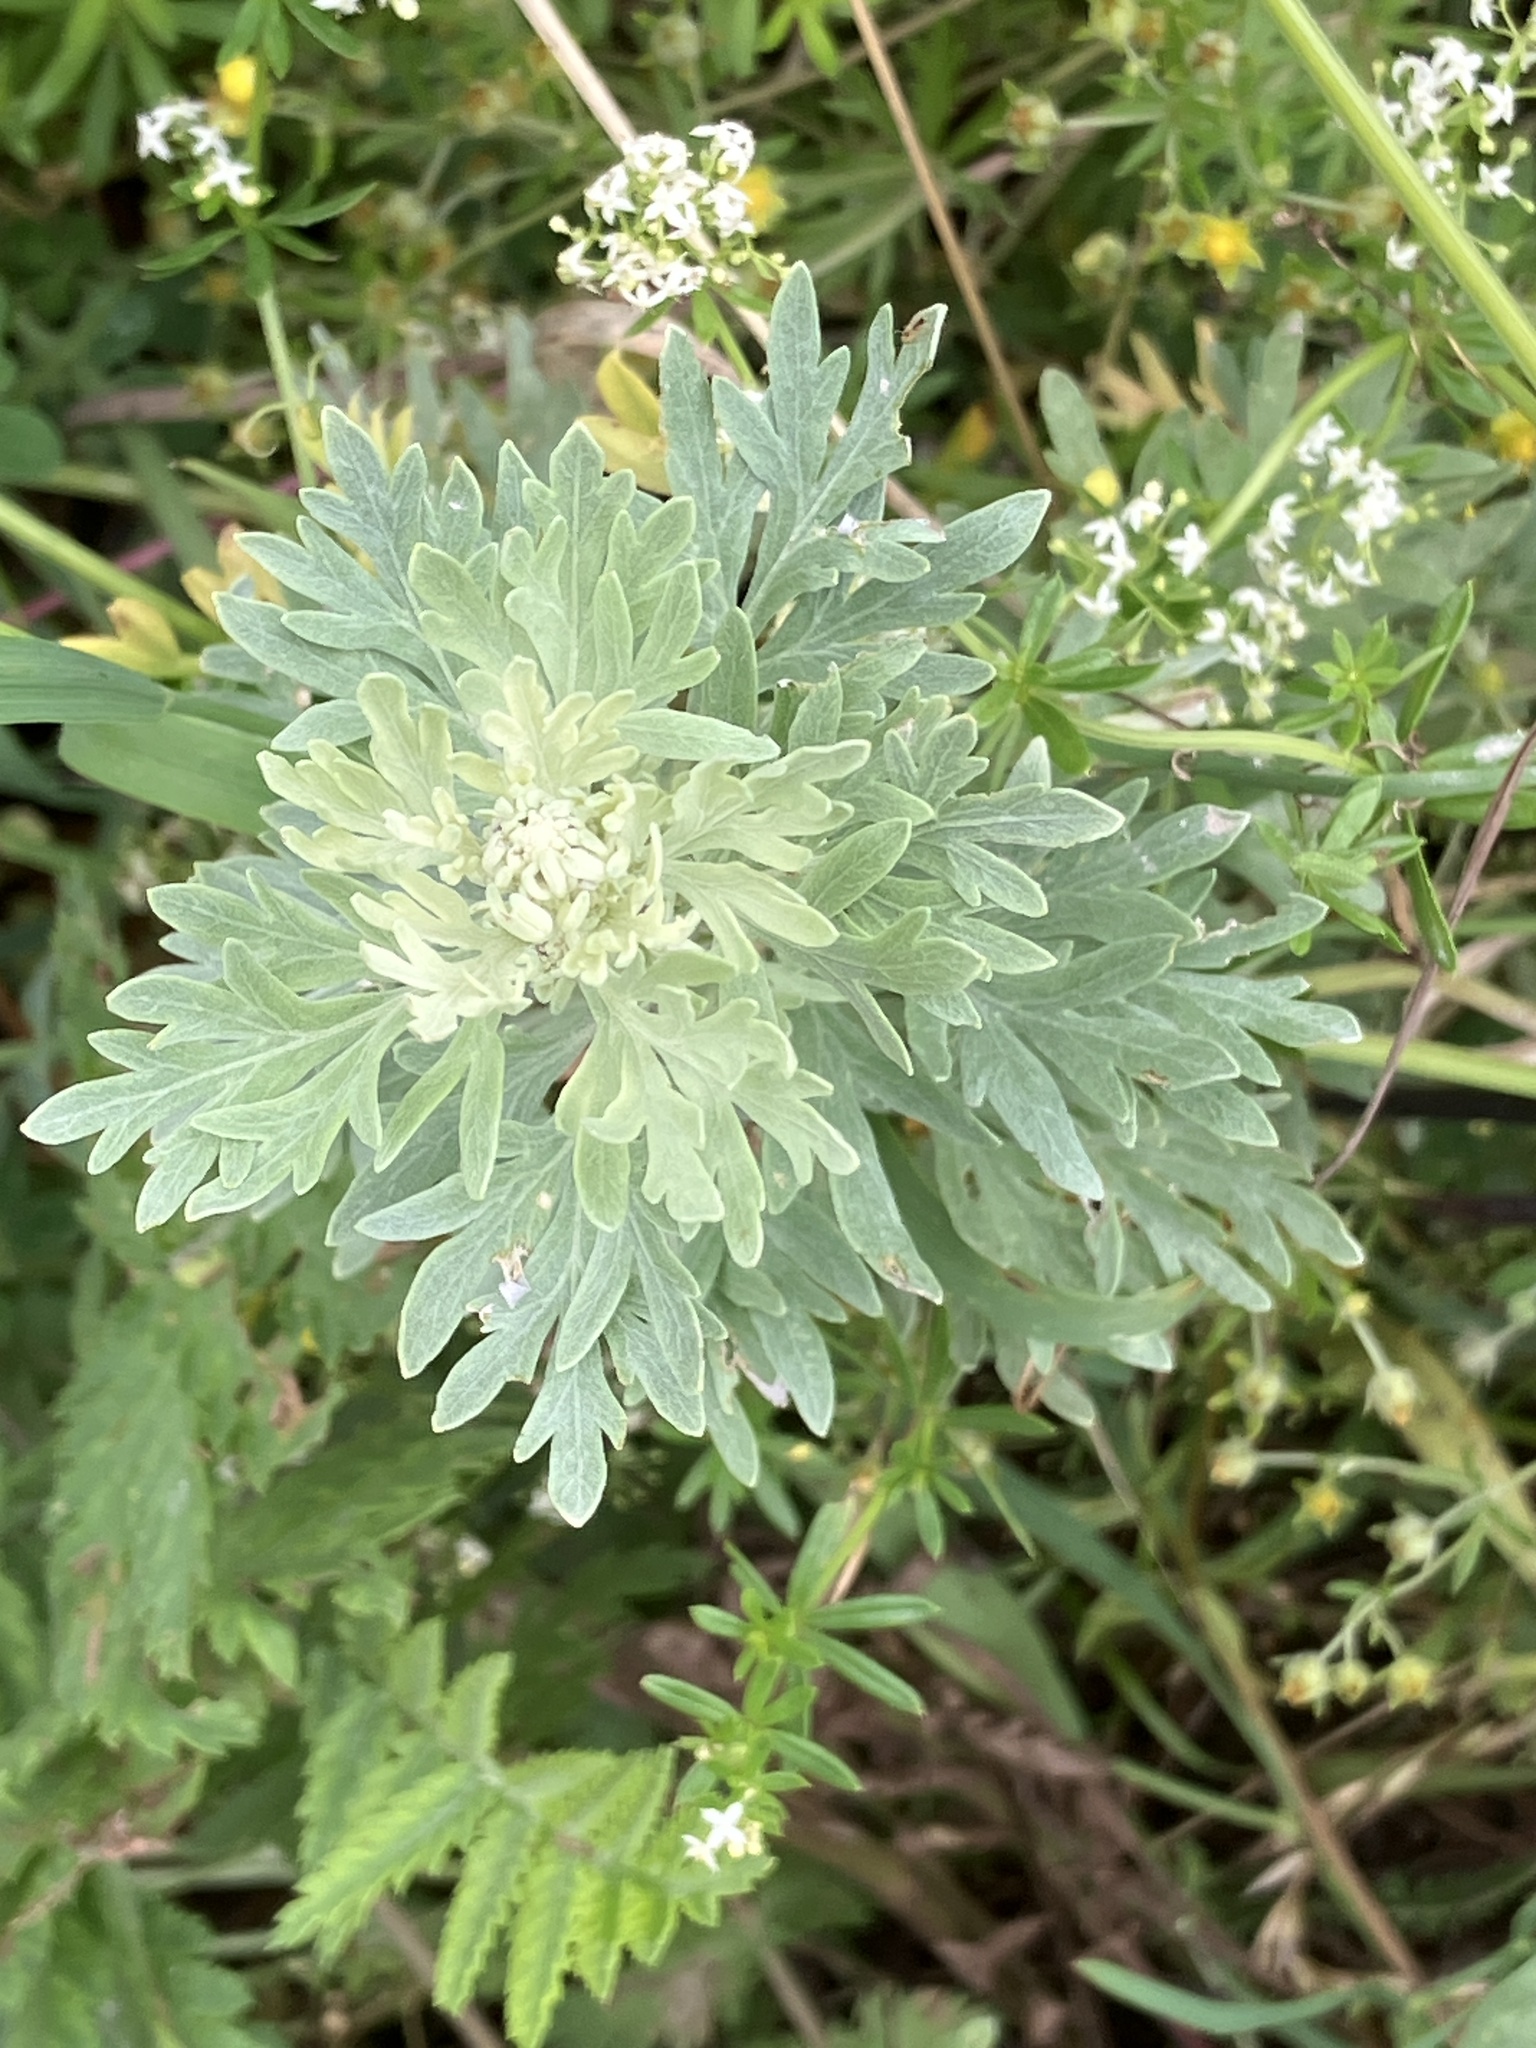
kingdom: Plantae
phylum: Tracheophyta
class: Magnoliopsida
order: Asterales
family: Asteraceae
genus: Artemisia
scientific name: Artemisia absinthium
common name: Wormwood
